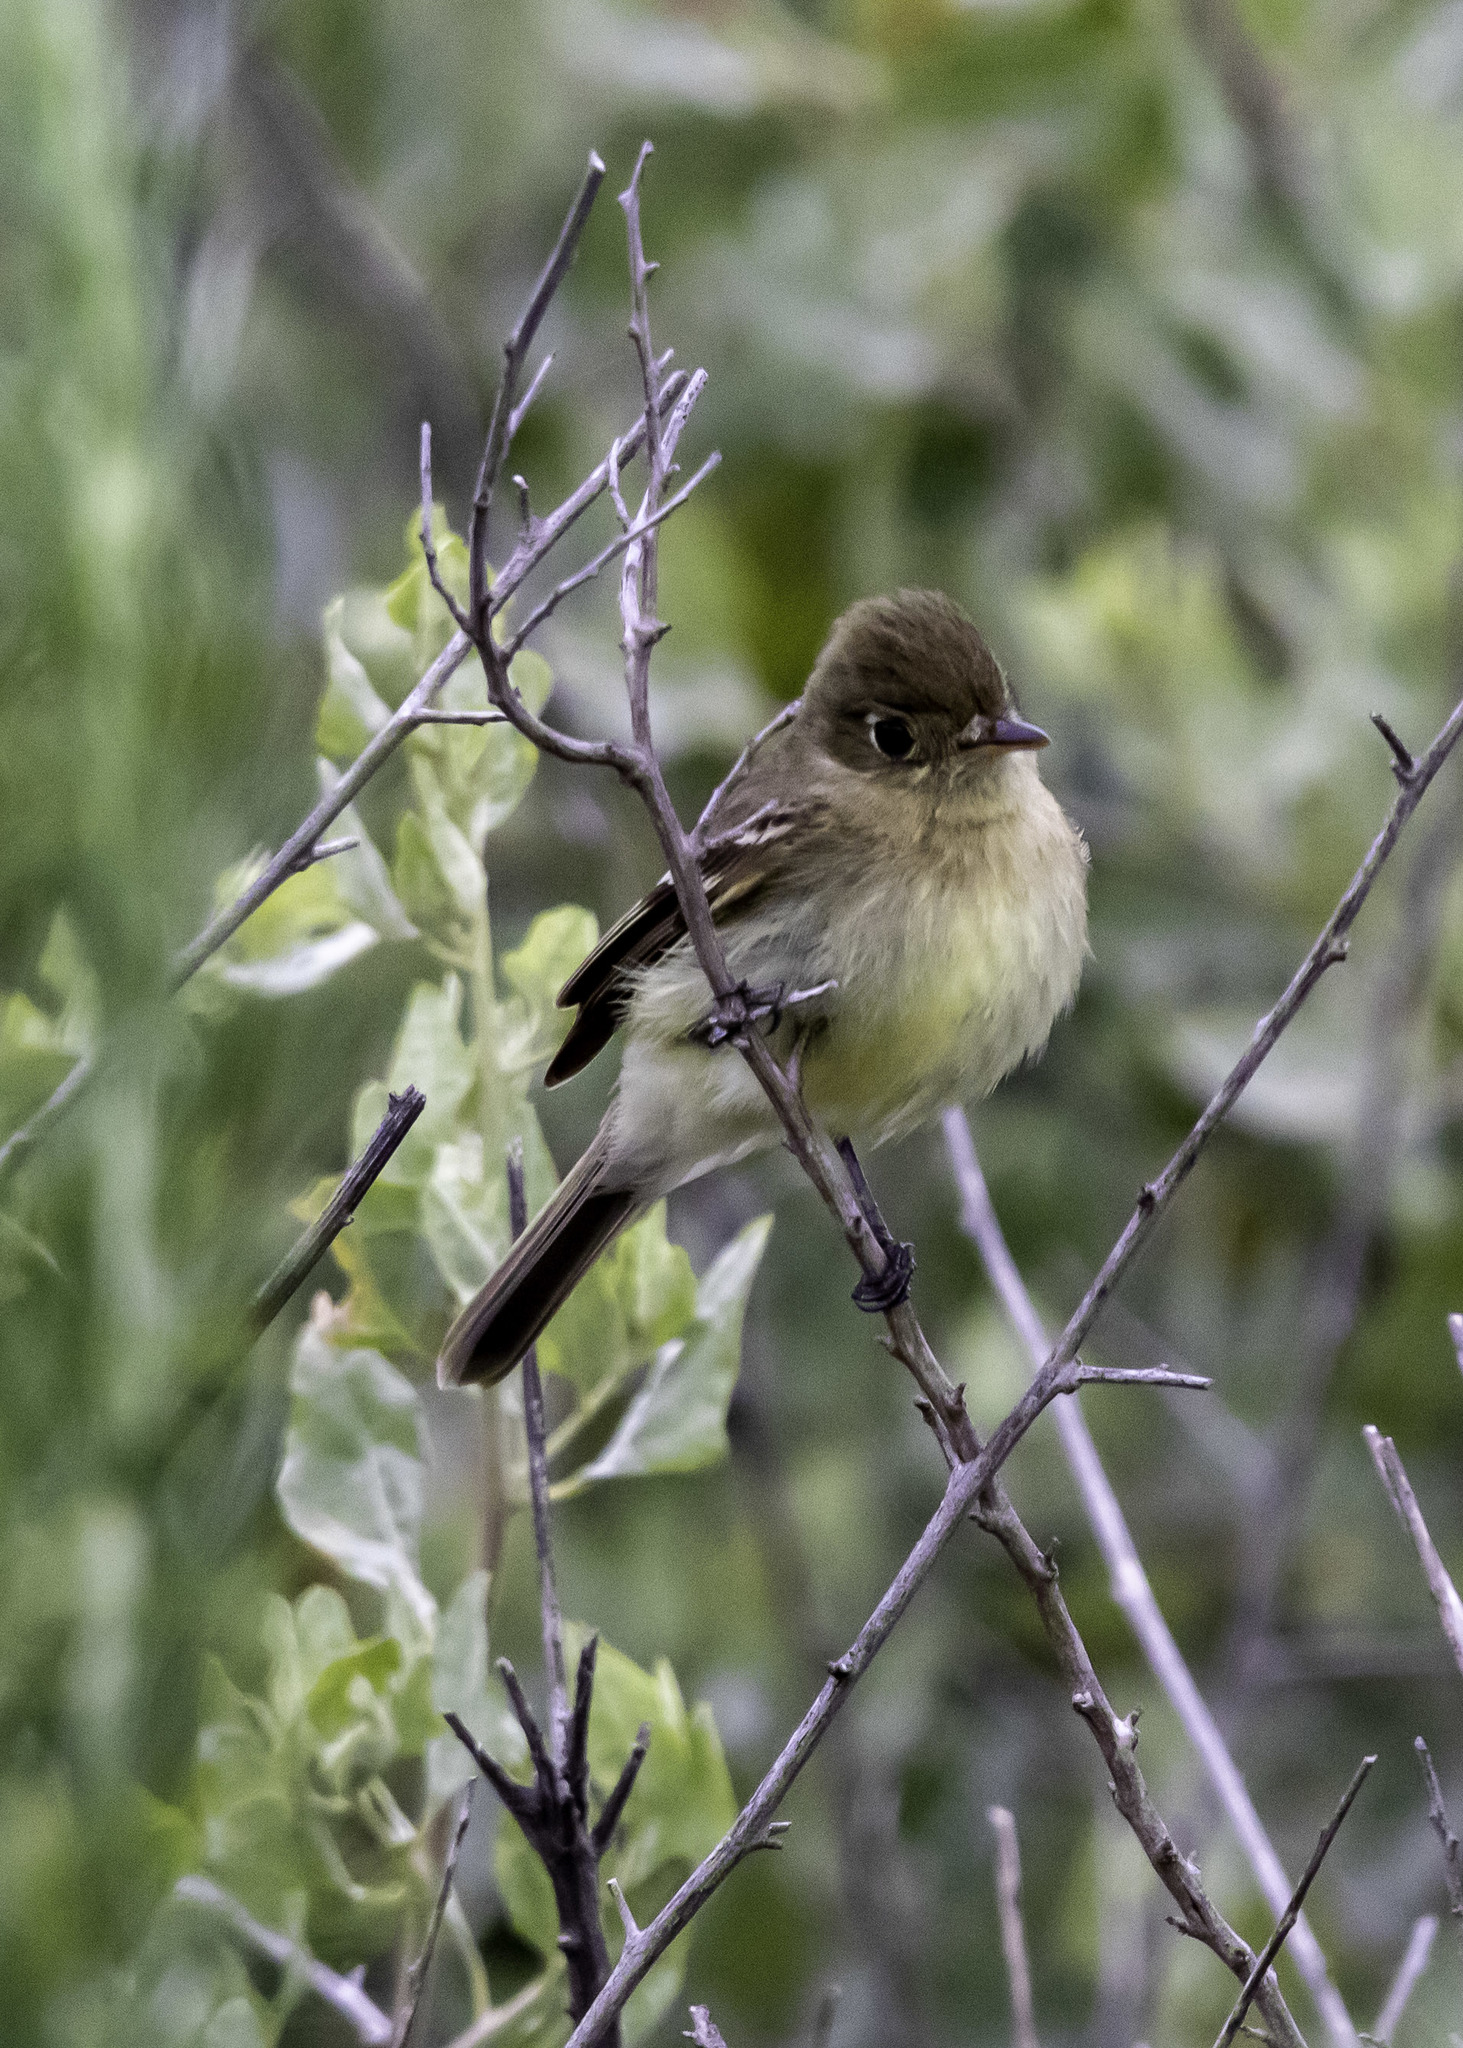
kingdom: Animalia
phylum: Chordata
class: Aves
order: Passeriformes
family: Tyrannidae
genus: Empidonax
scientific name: Empidonax difficilis
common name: Pacific-slope flycatcher
